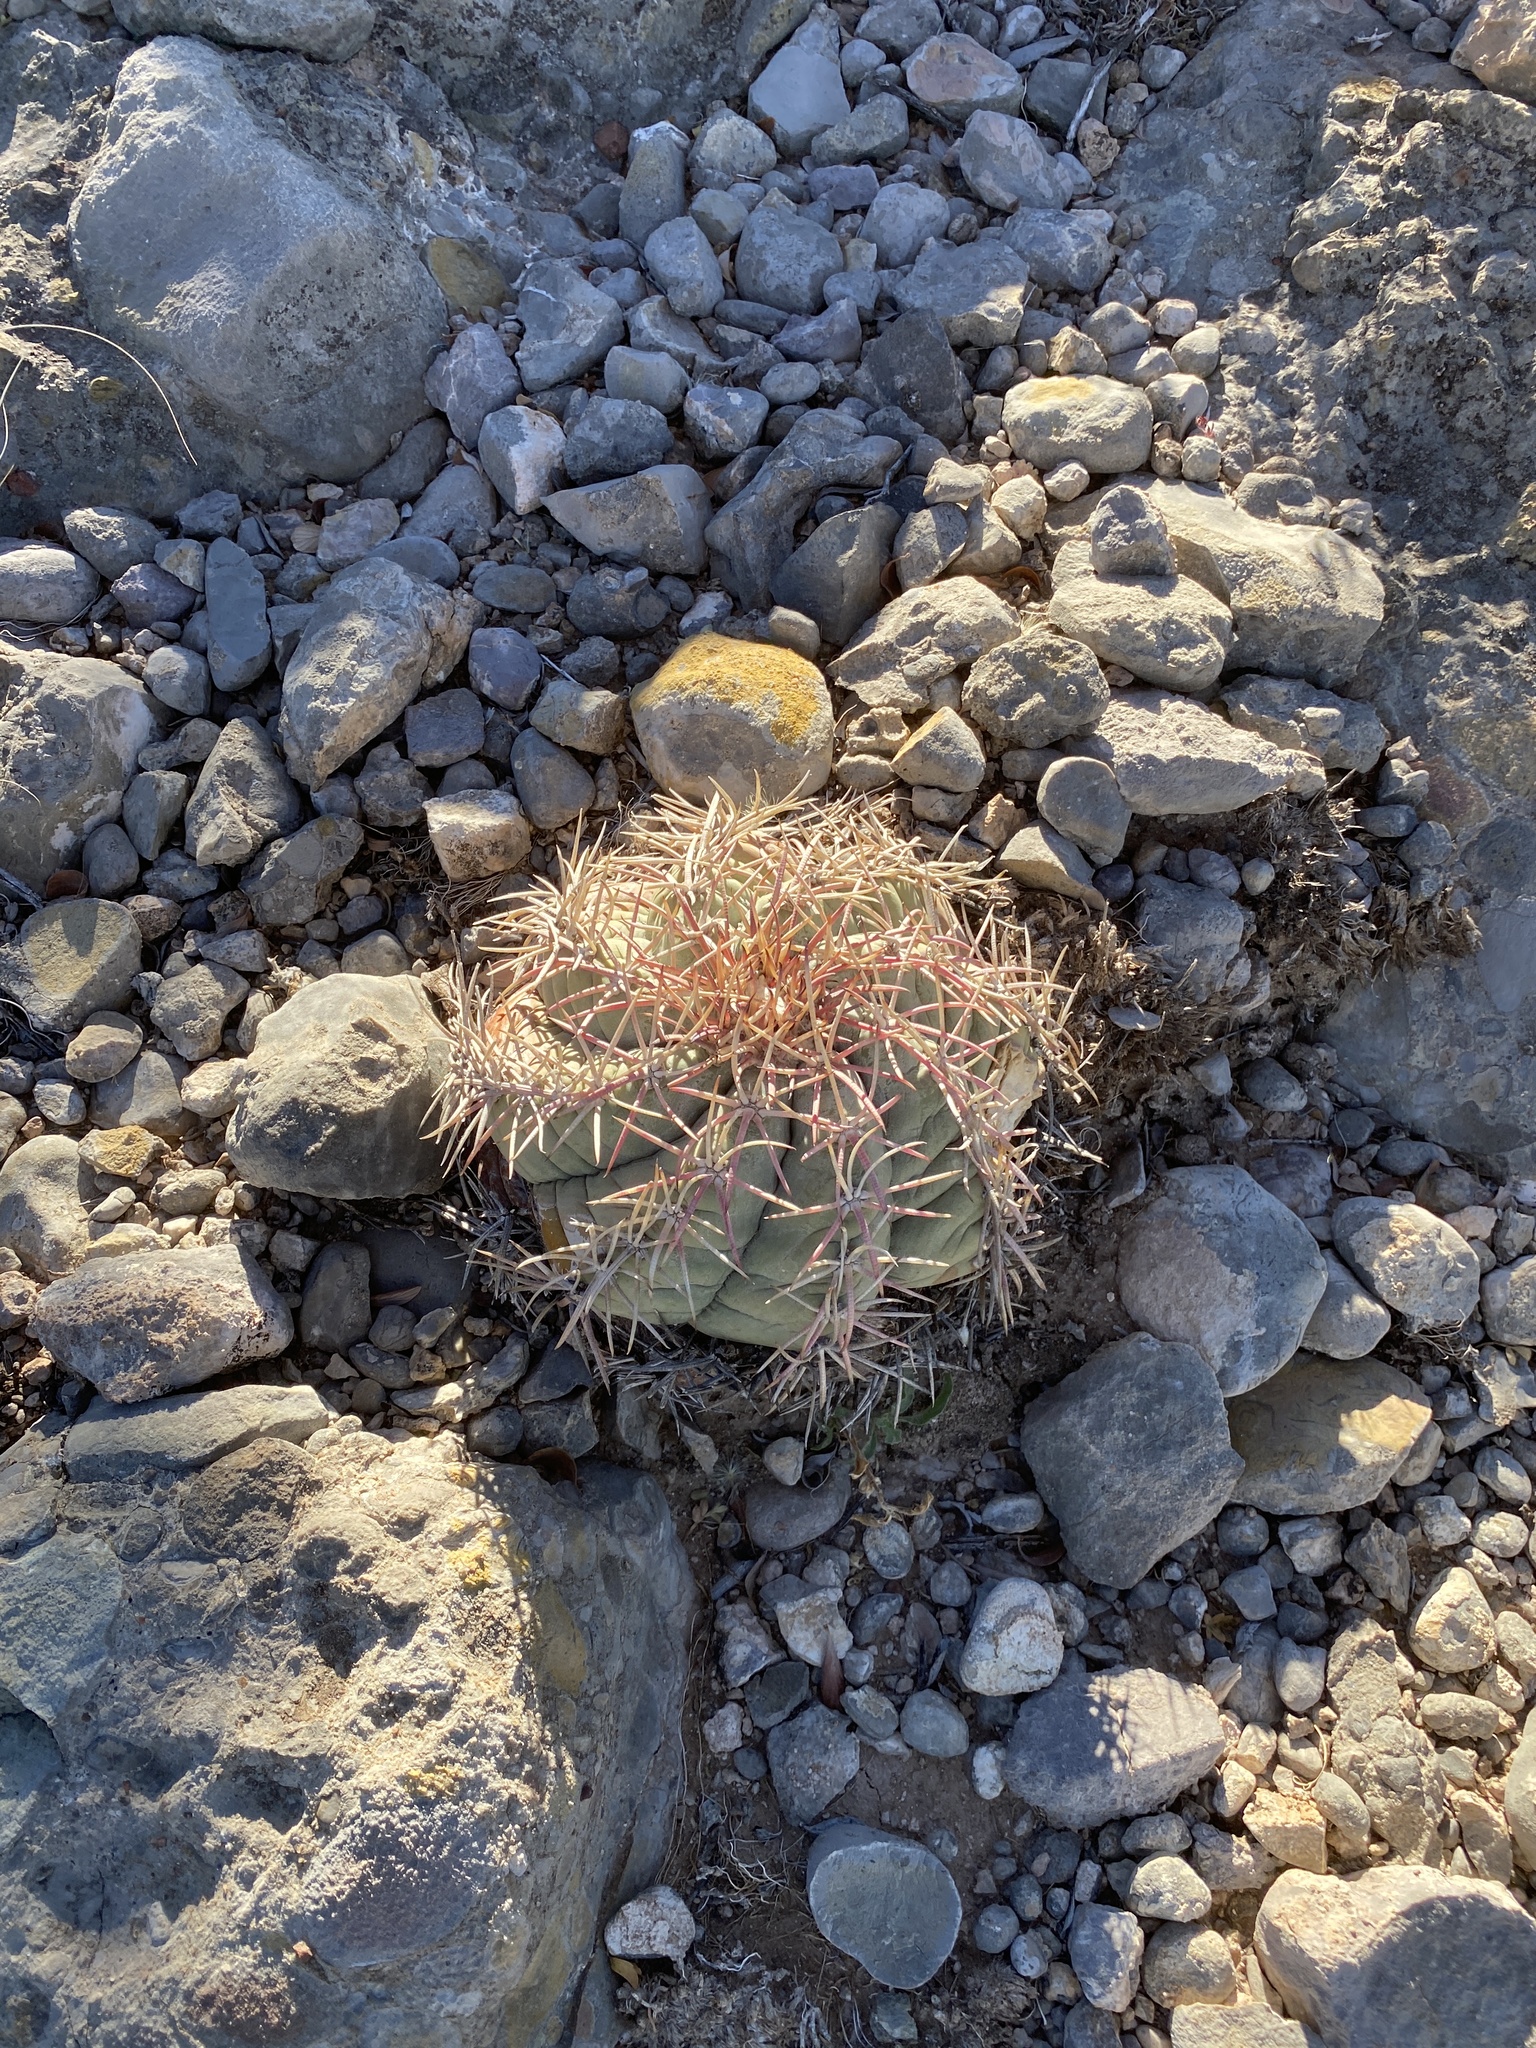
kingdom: Plantae
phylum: Tracheophyta
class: Magnoliopsida
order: Caryophyllales
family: Cactaceae
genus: Echinocactus
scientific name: Echinocactus horizonthalonius
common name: Devilshead
